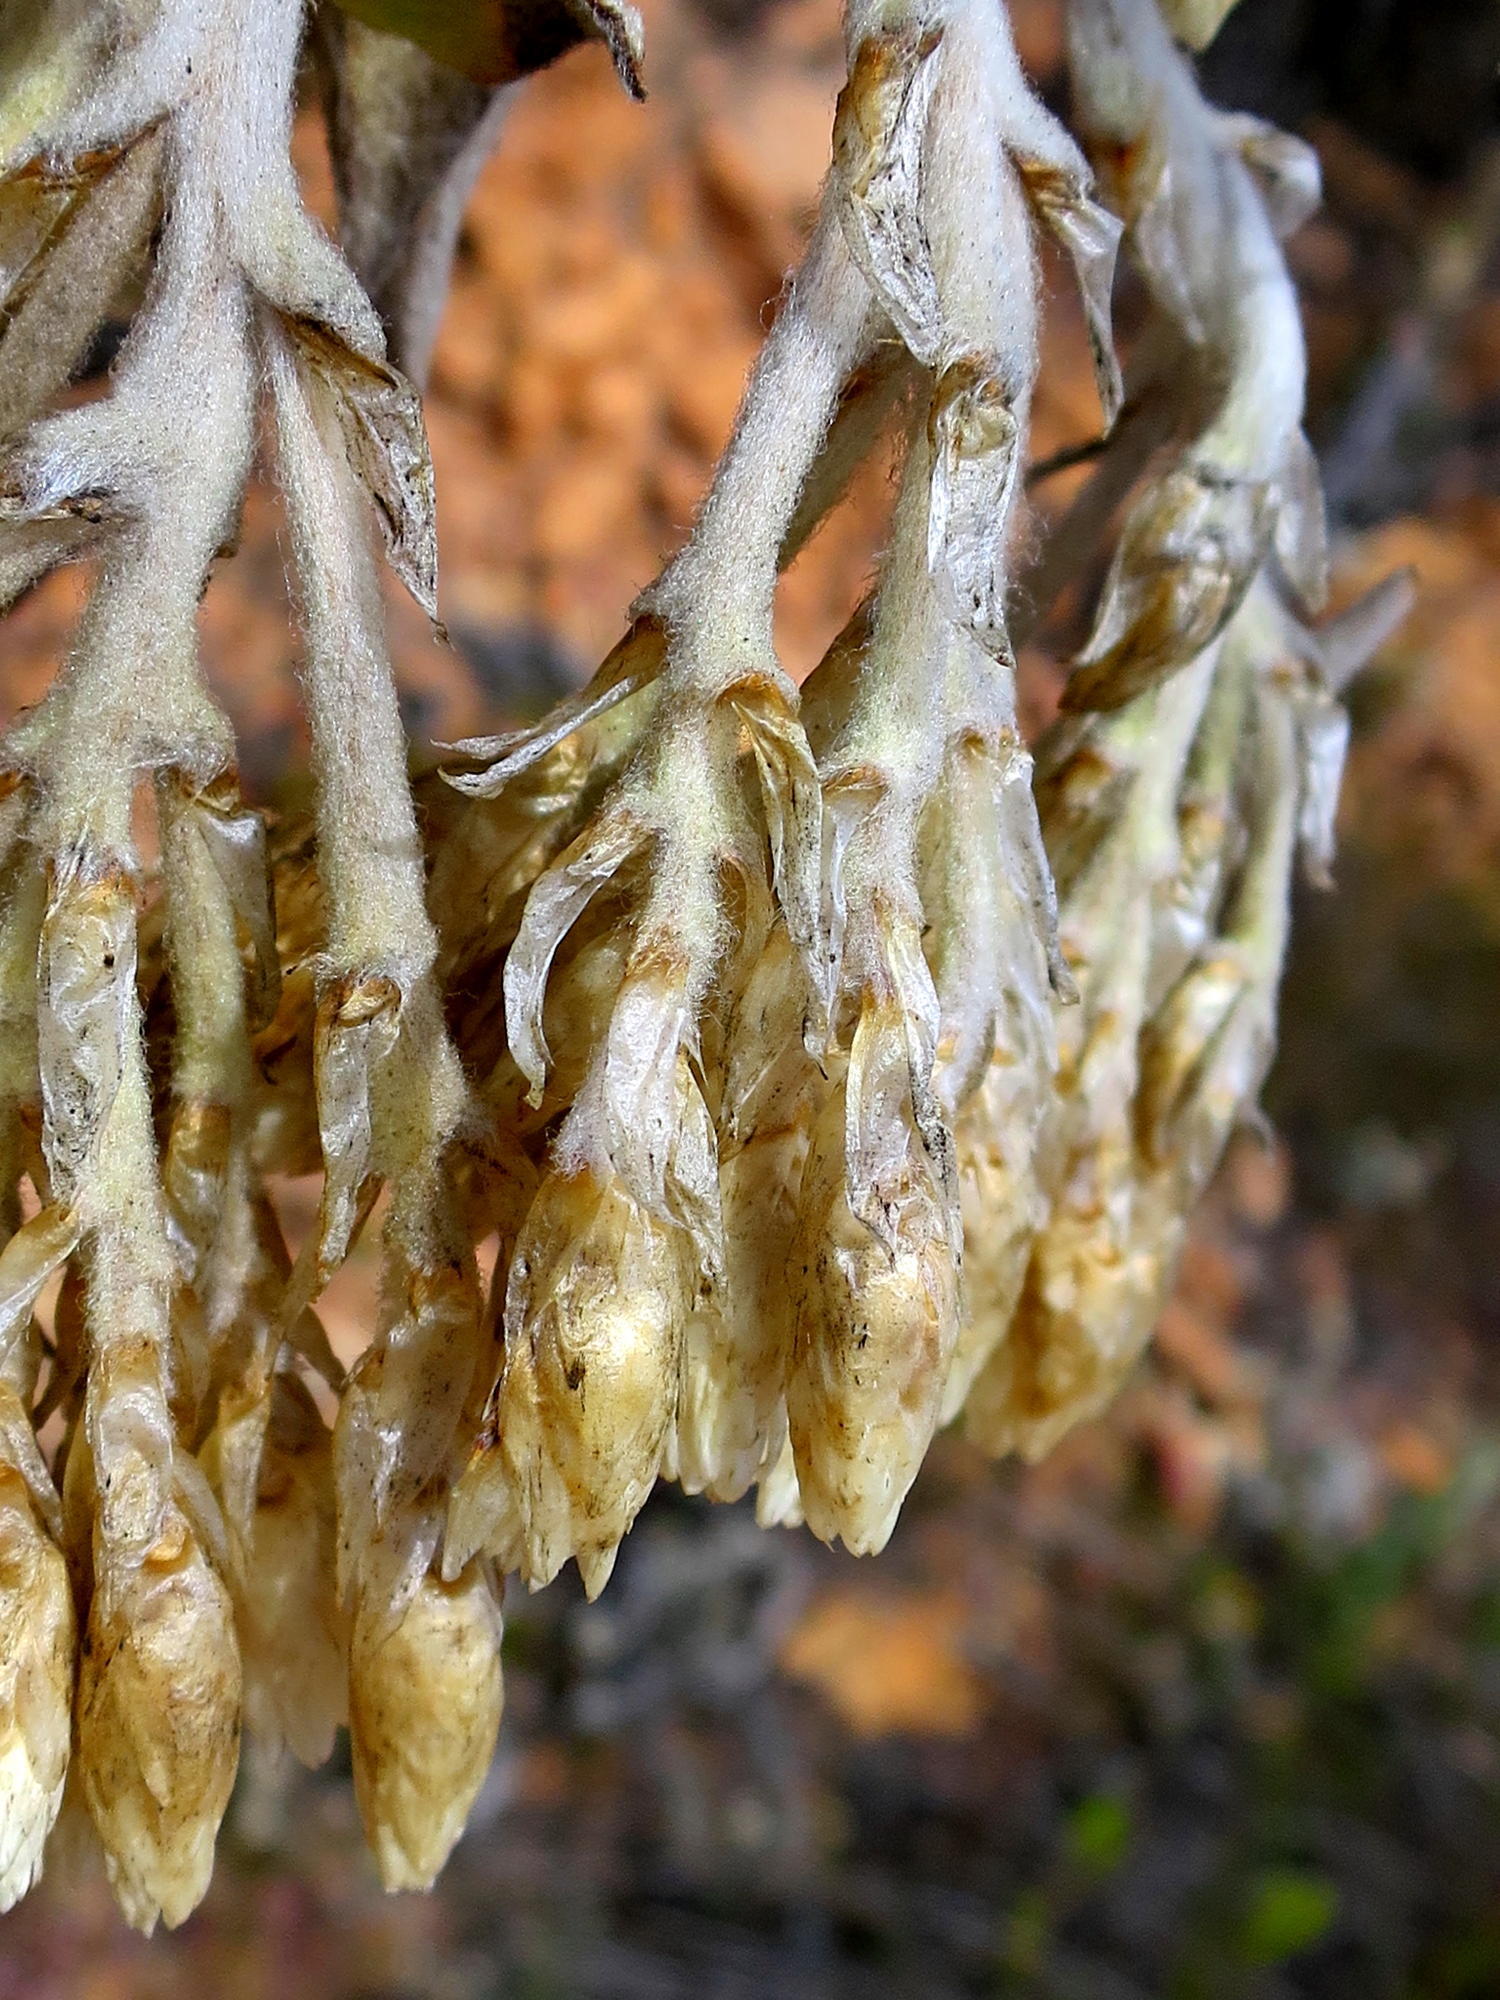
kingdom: Plantae
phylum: Tracheophyta
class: Magnoliopsida
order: Asterales
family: Asteraceae
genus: Syncarpha
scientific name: Syncarpha milleflora
